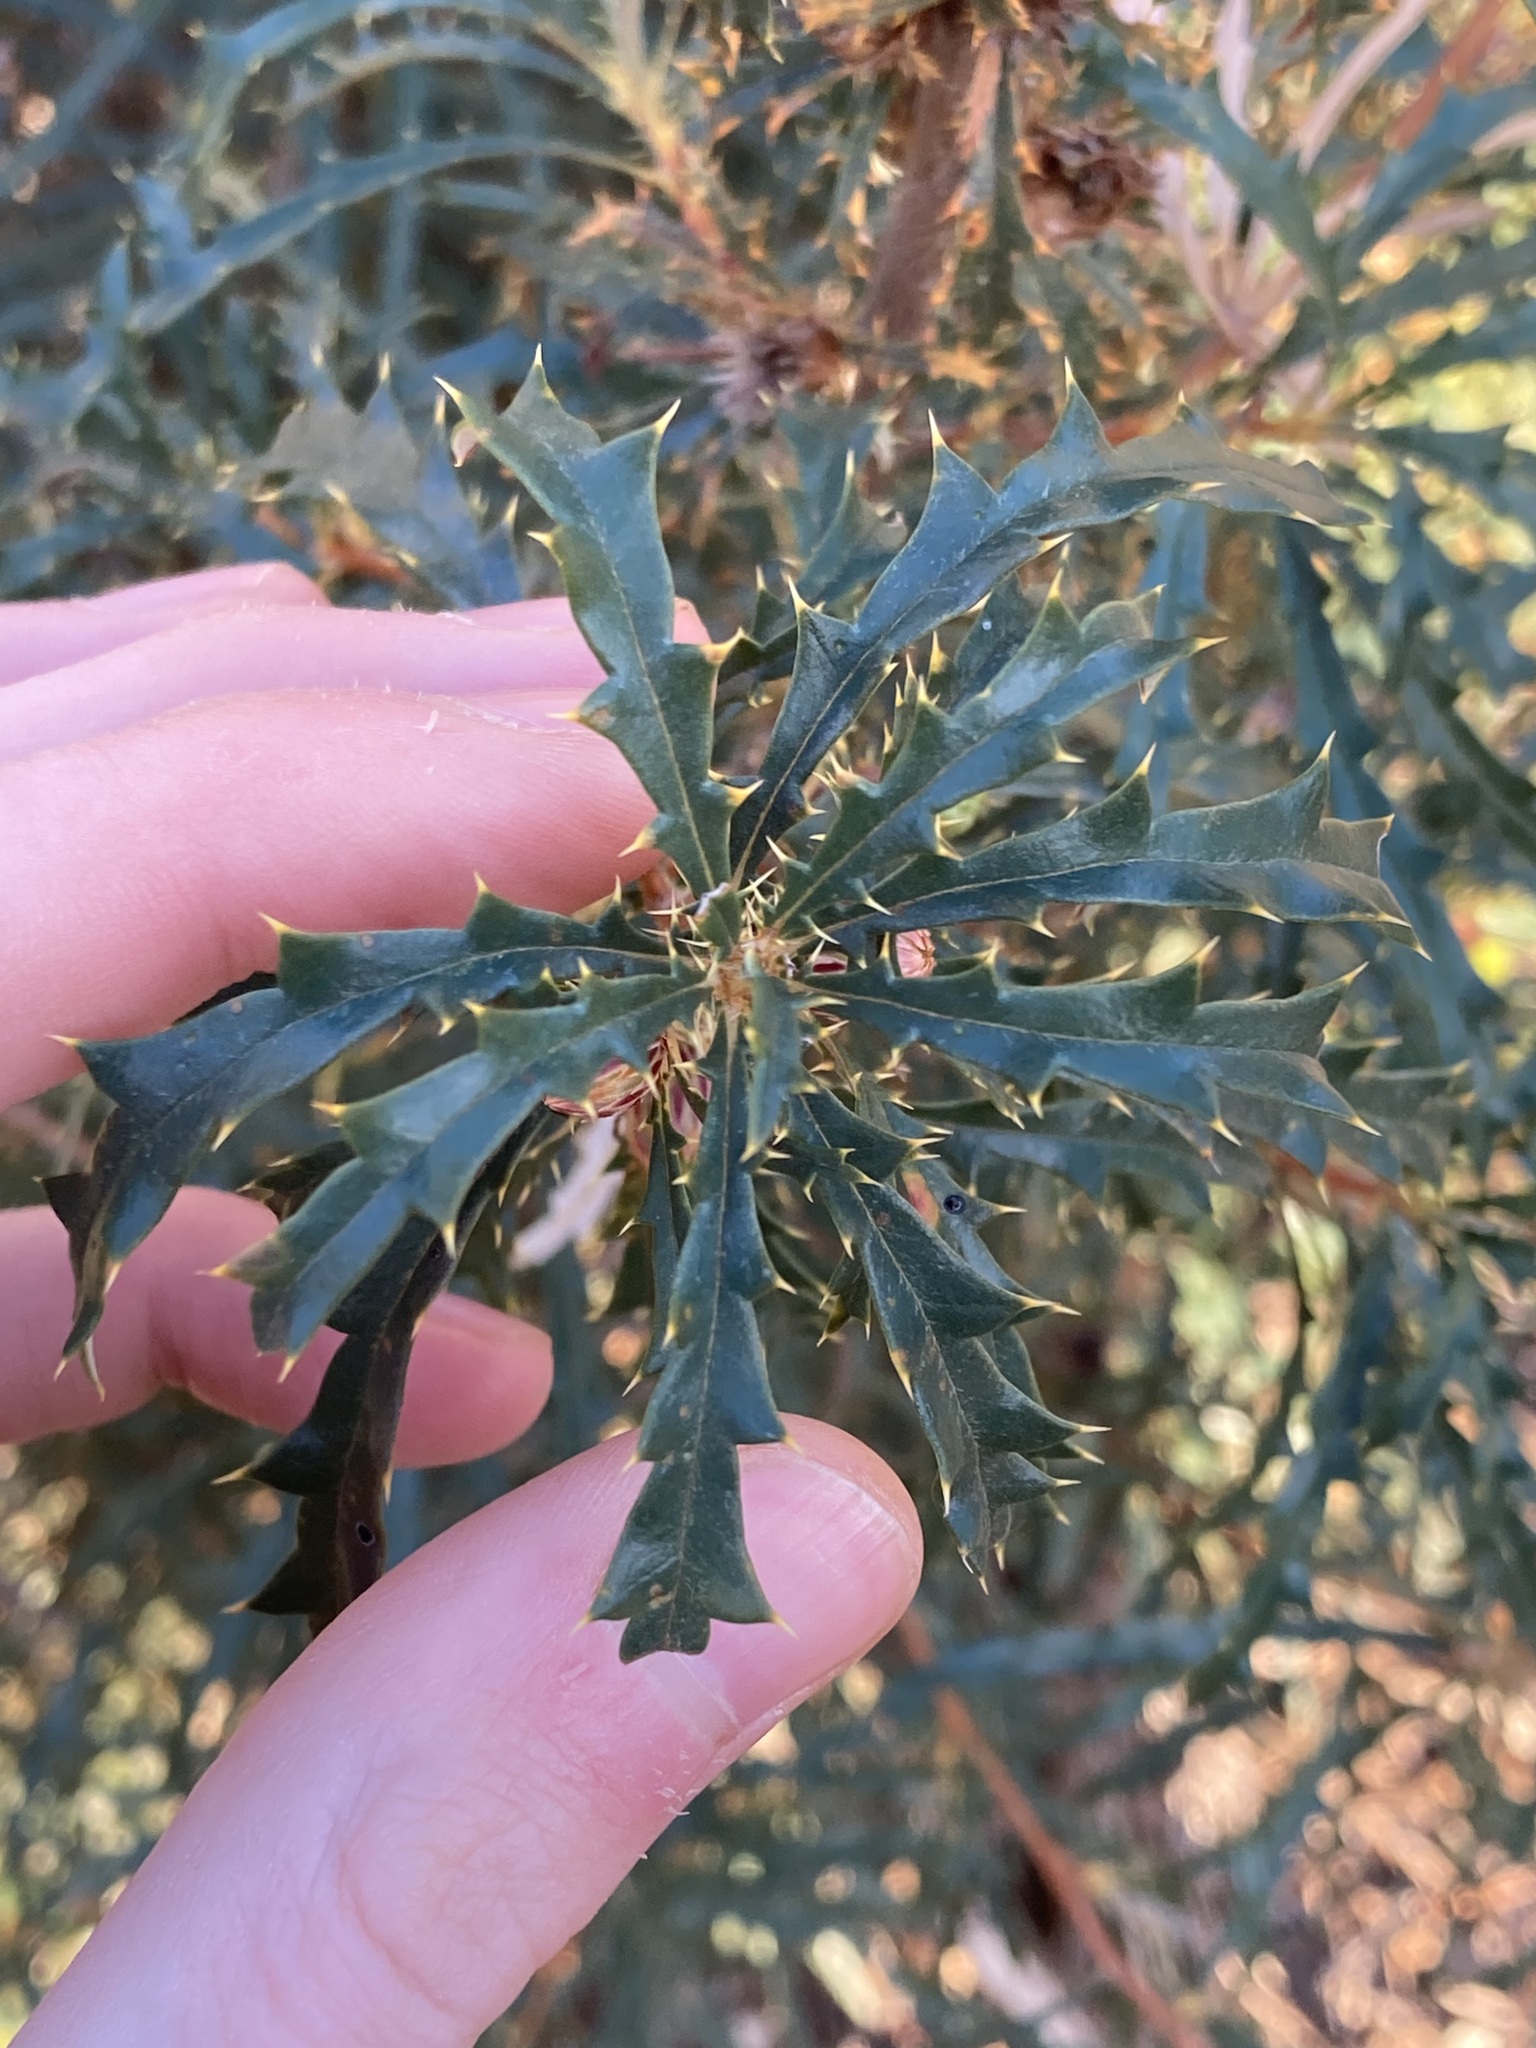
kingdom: Plantae
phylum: Tracheophyta
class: Magnoliopsida
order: Proteales
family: Proteaceae
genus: Banksia
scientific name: Banksia squarrosa
